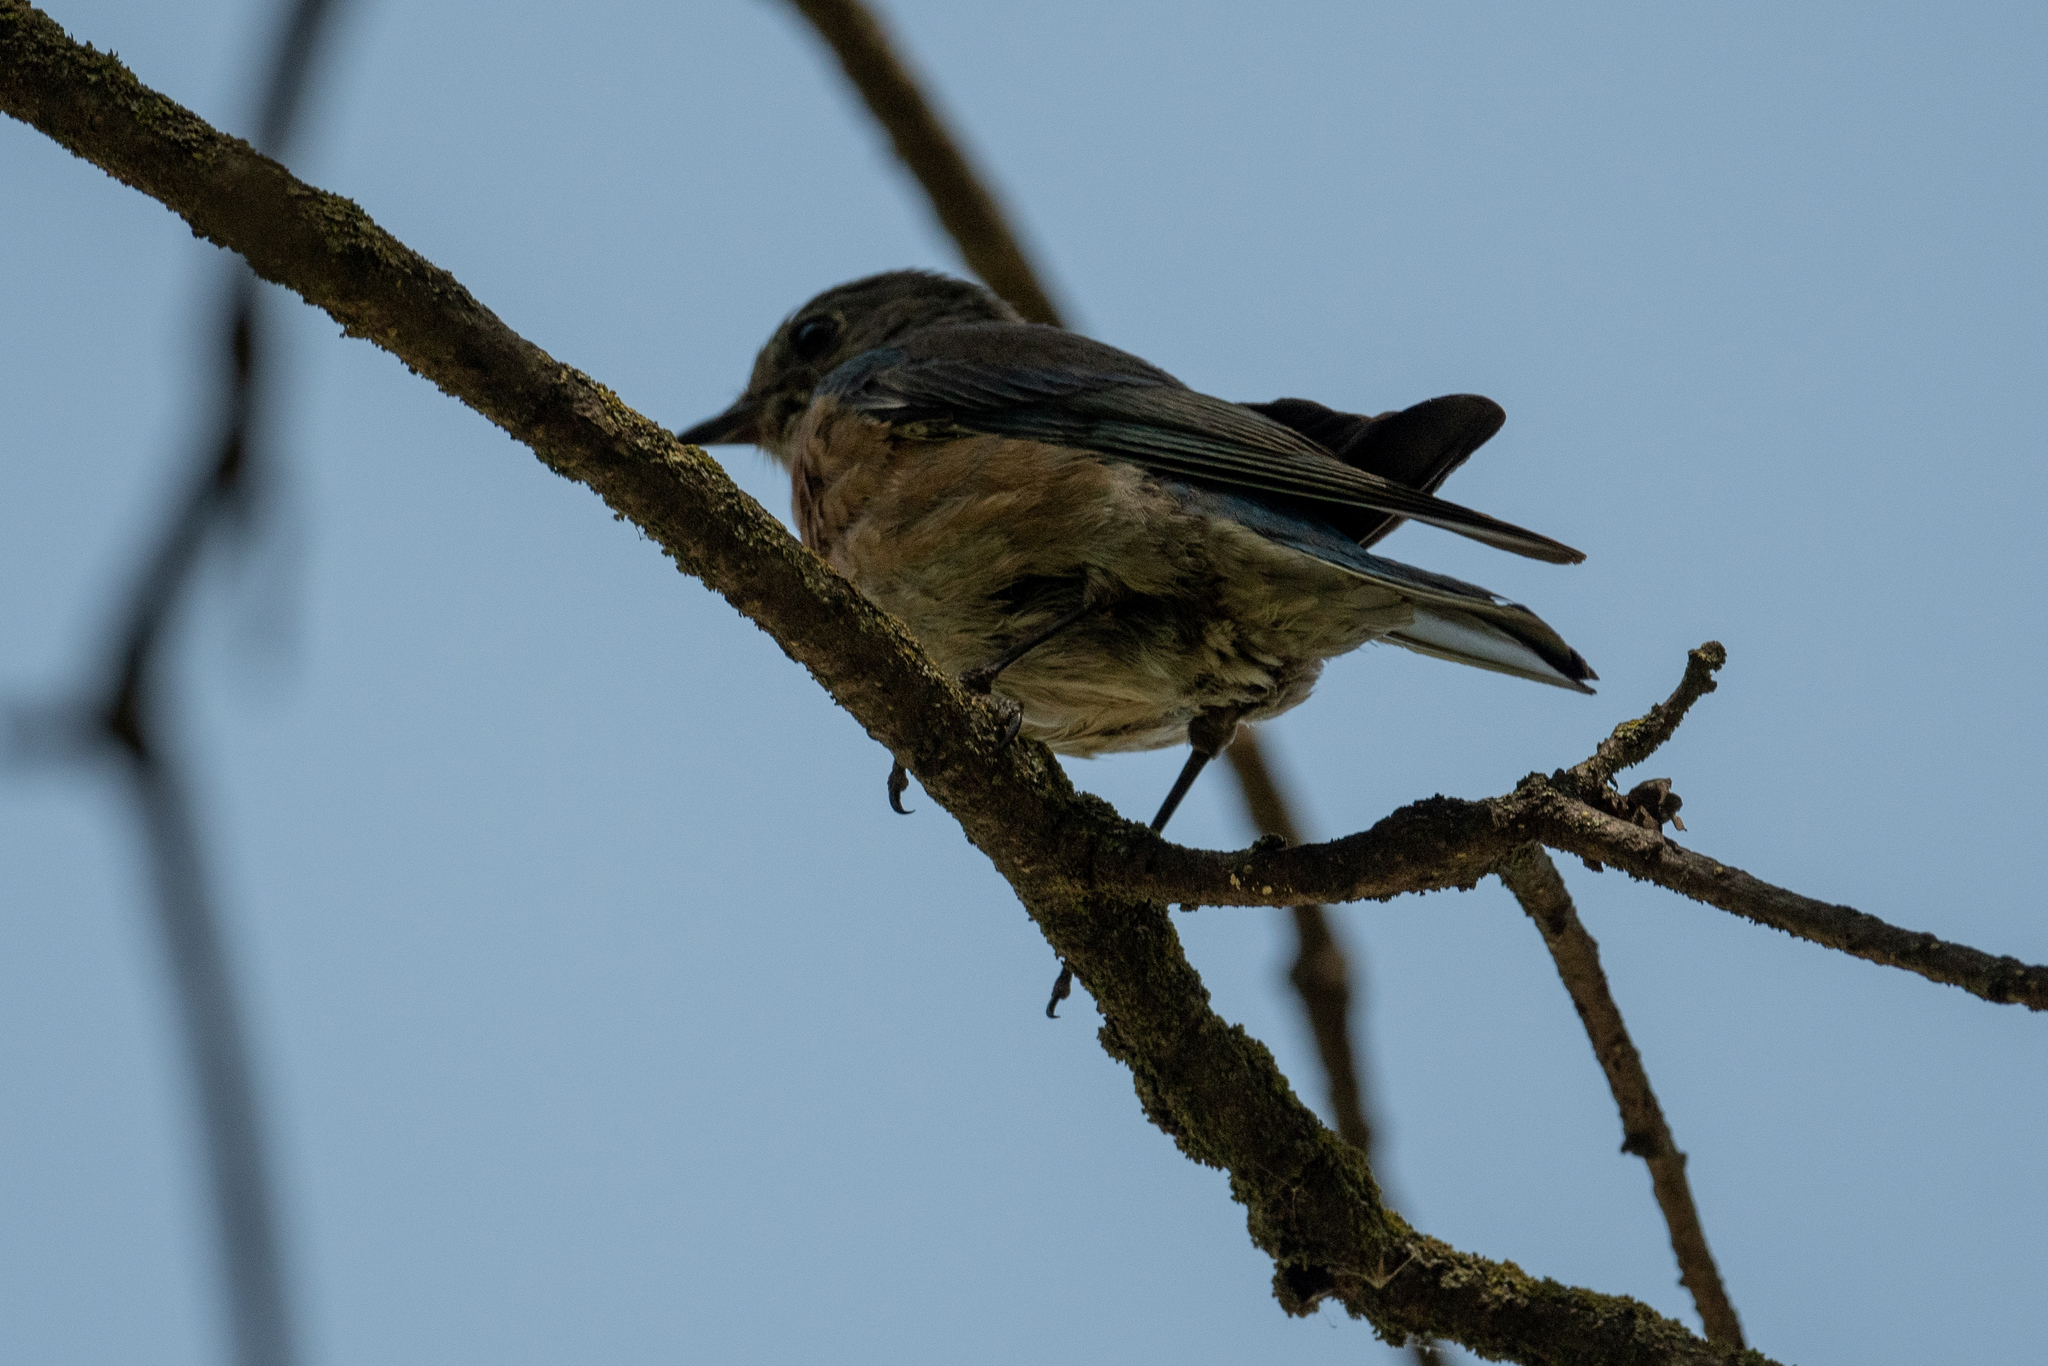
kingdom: Animalia
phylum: Chordata
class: Aves
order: Passeriformes
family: Turdidae
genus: Sialia
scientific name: Sialia mexicana
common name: Western bluebird
